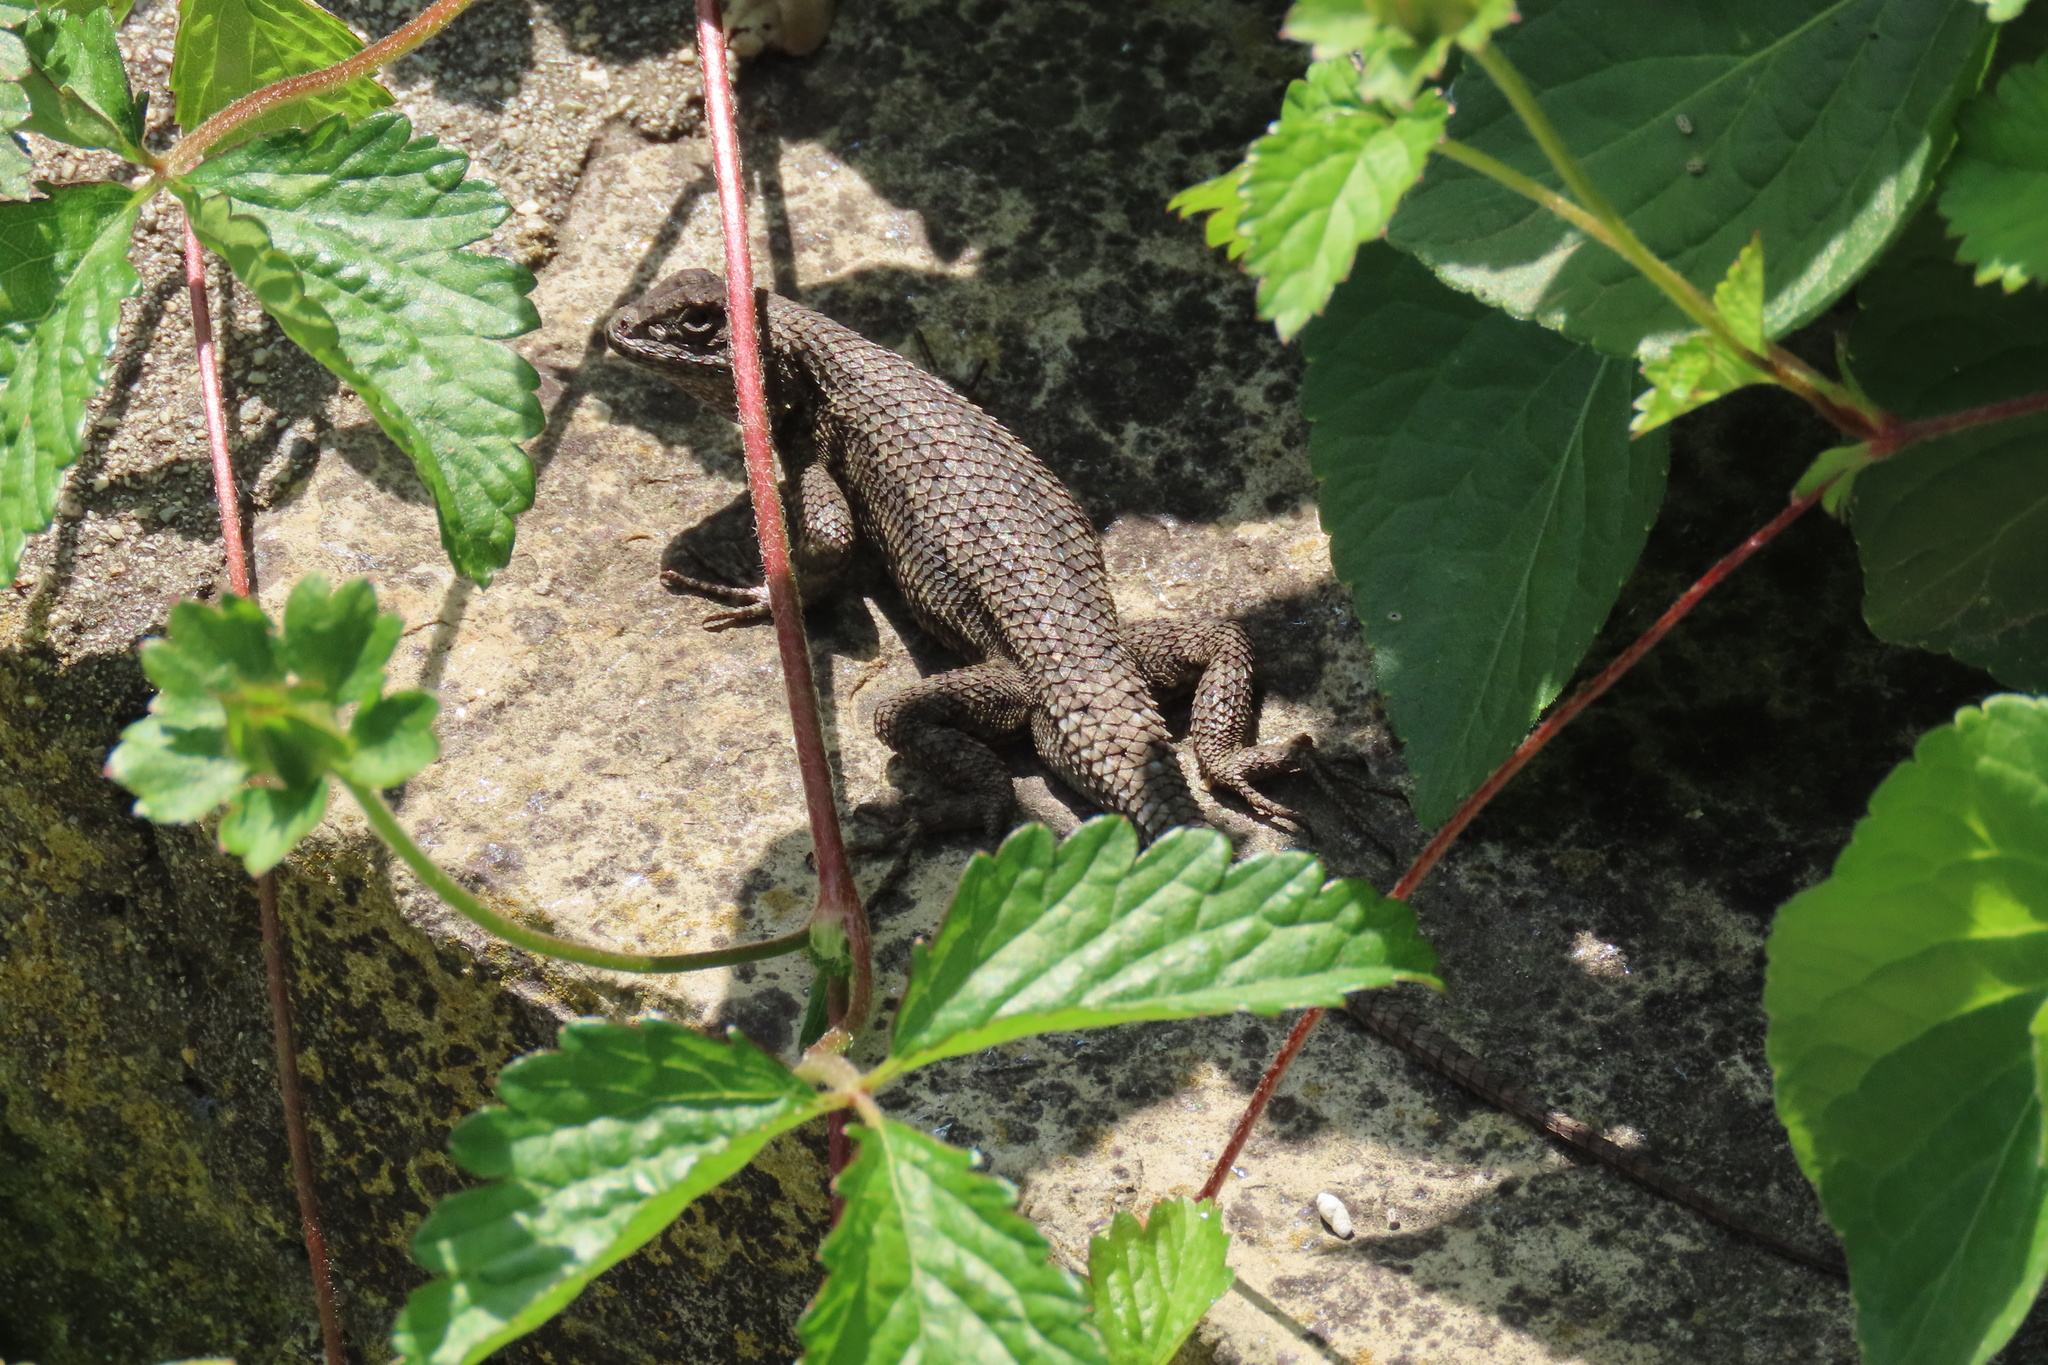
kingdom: Animalia
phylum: Chordata
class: Squamata
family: Phrynosomatidae
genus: Sceloporus
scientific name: Sceloporus occidentalis
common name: Western fence lizard
